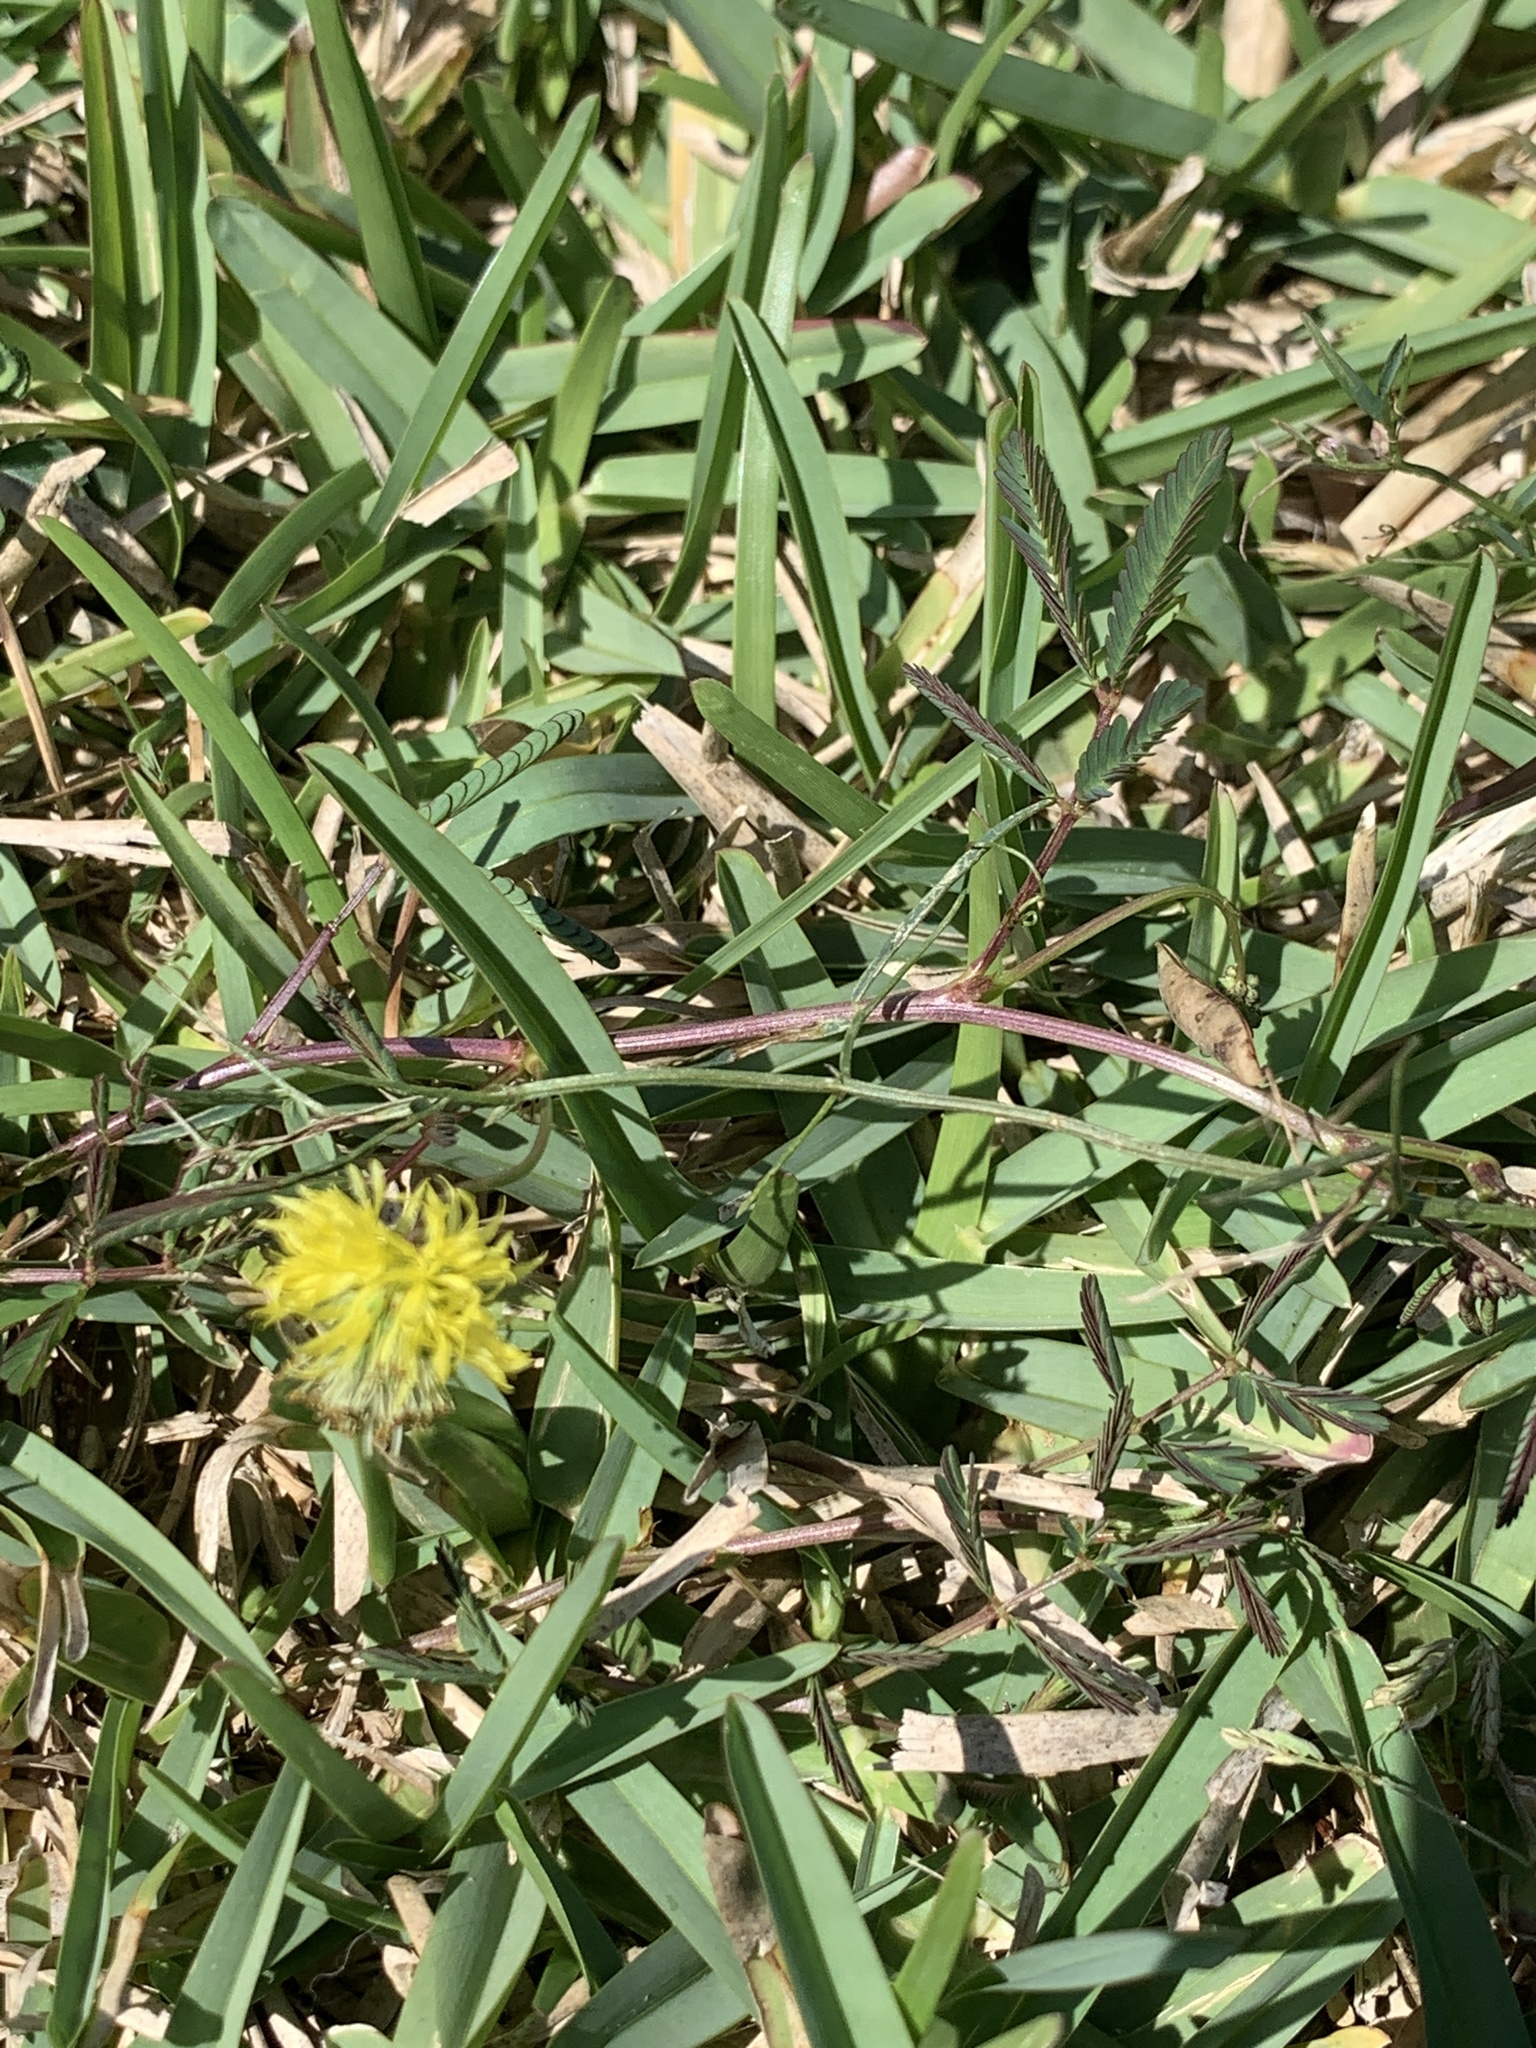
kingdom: Plantae
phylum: Tracheophyta
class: Magnoliopsida
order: Fabales
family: Fabaceae
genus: Neptunia
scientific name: Neptunia pubescens
